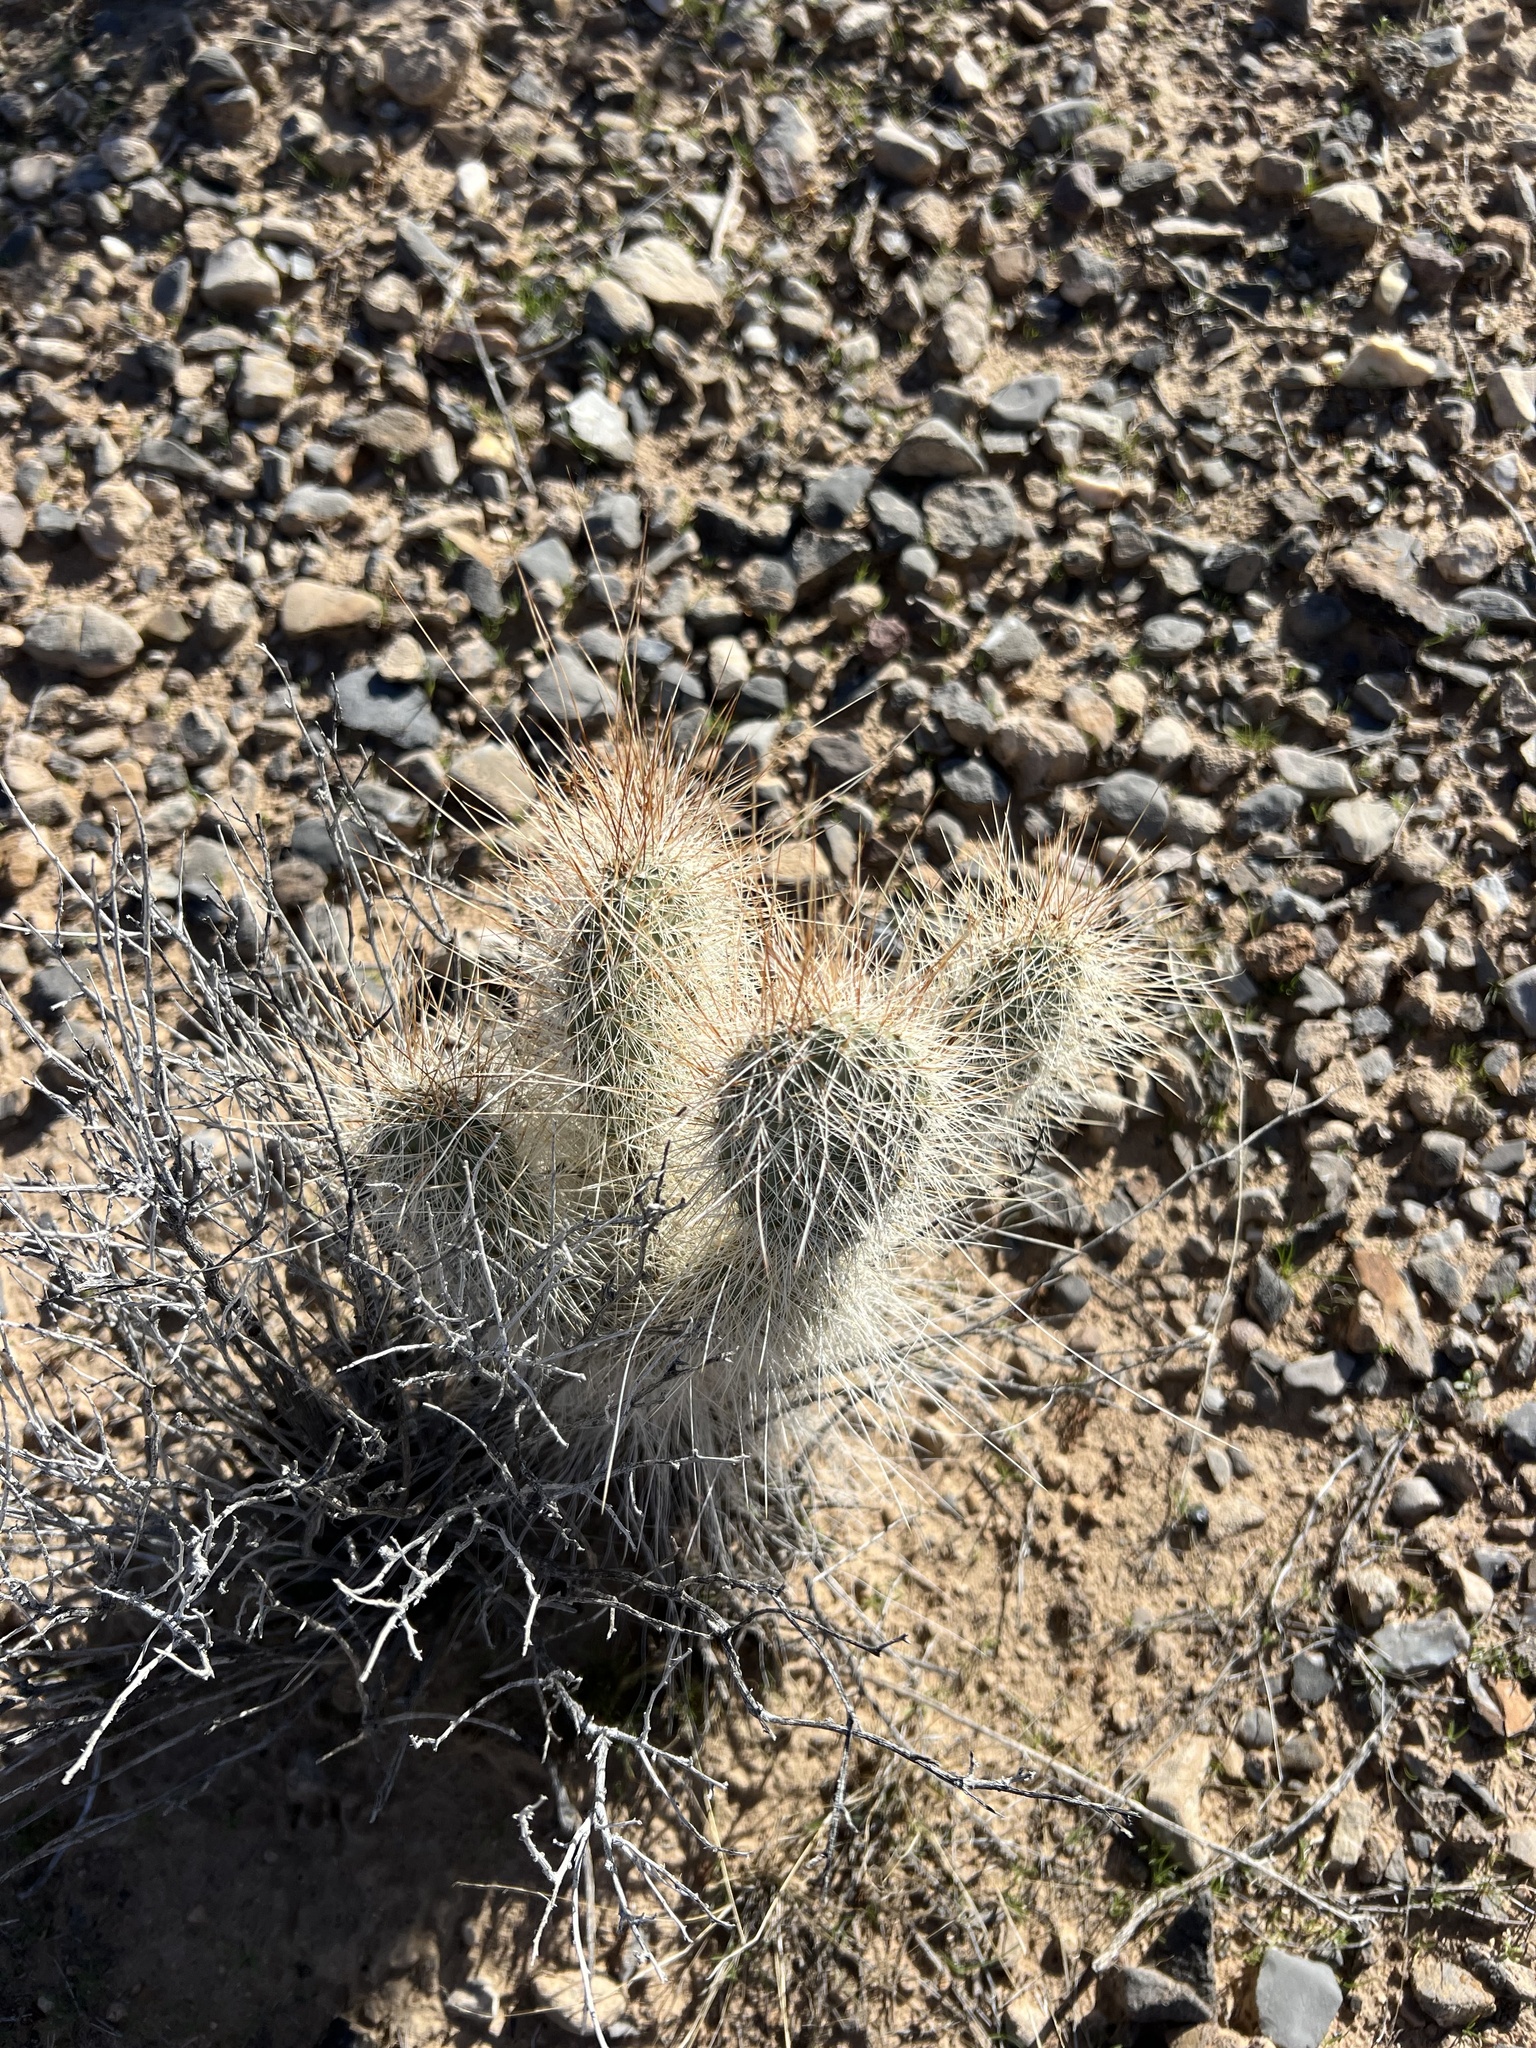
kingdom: Plantae
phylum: Tracheophyta
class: Magnoliopsida
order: Caryophyllales
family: Cactaceae
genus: Opuntia
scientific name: Opuntia polyacantha
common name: Plains prickly-pear
